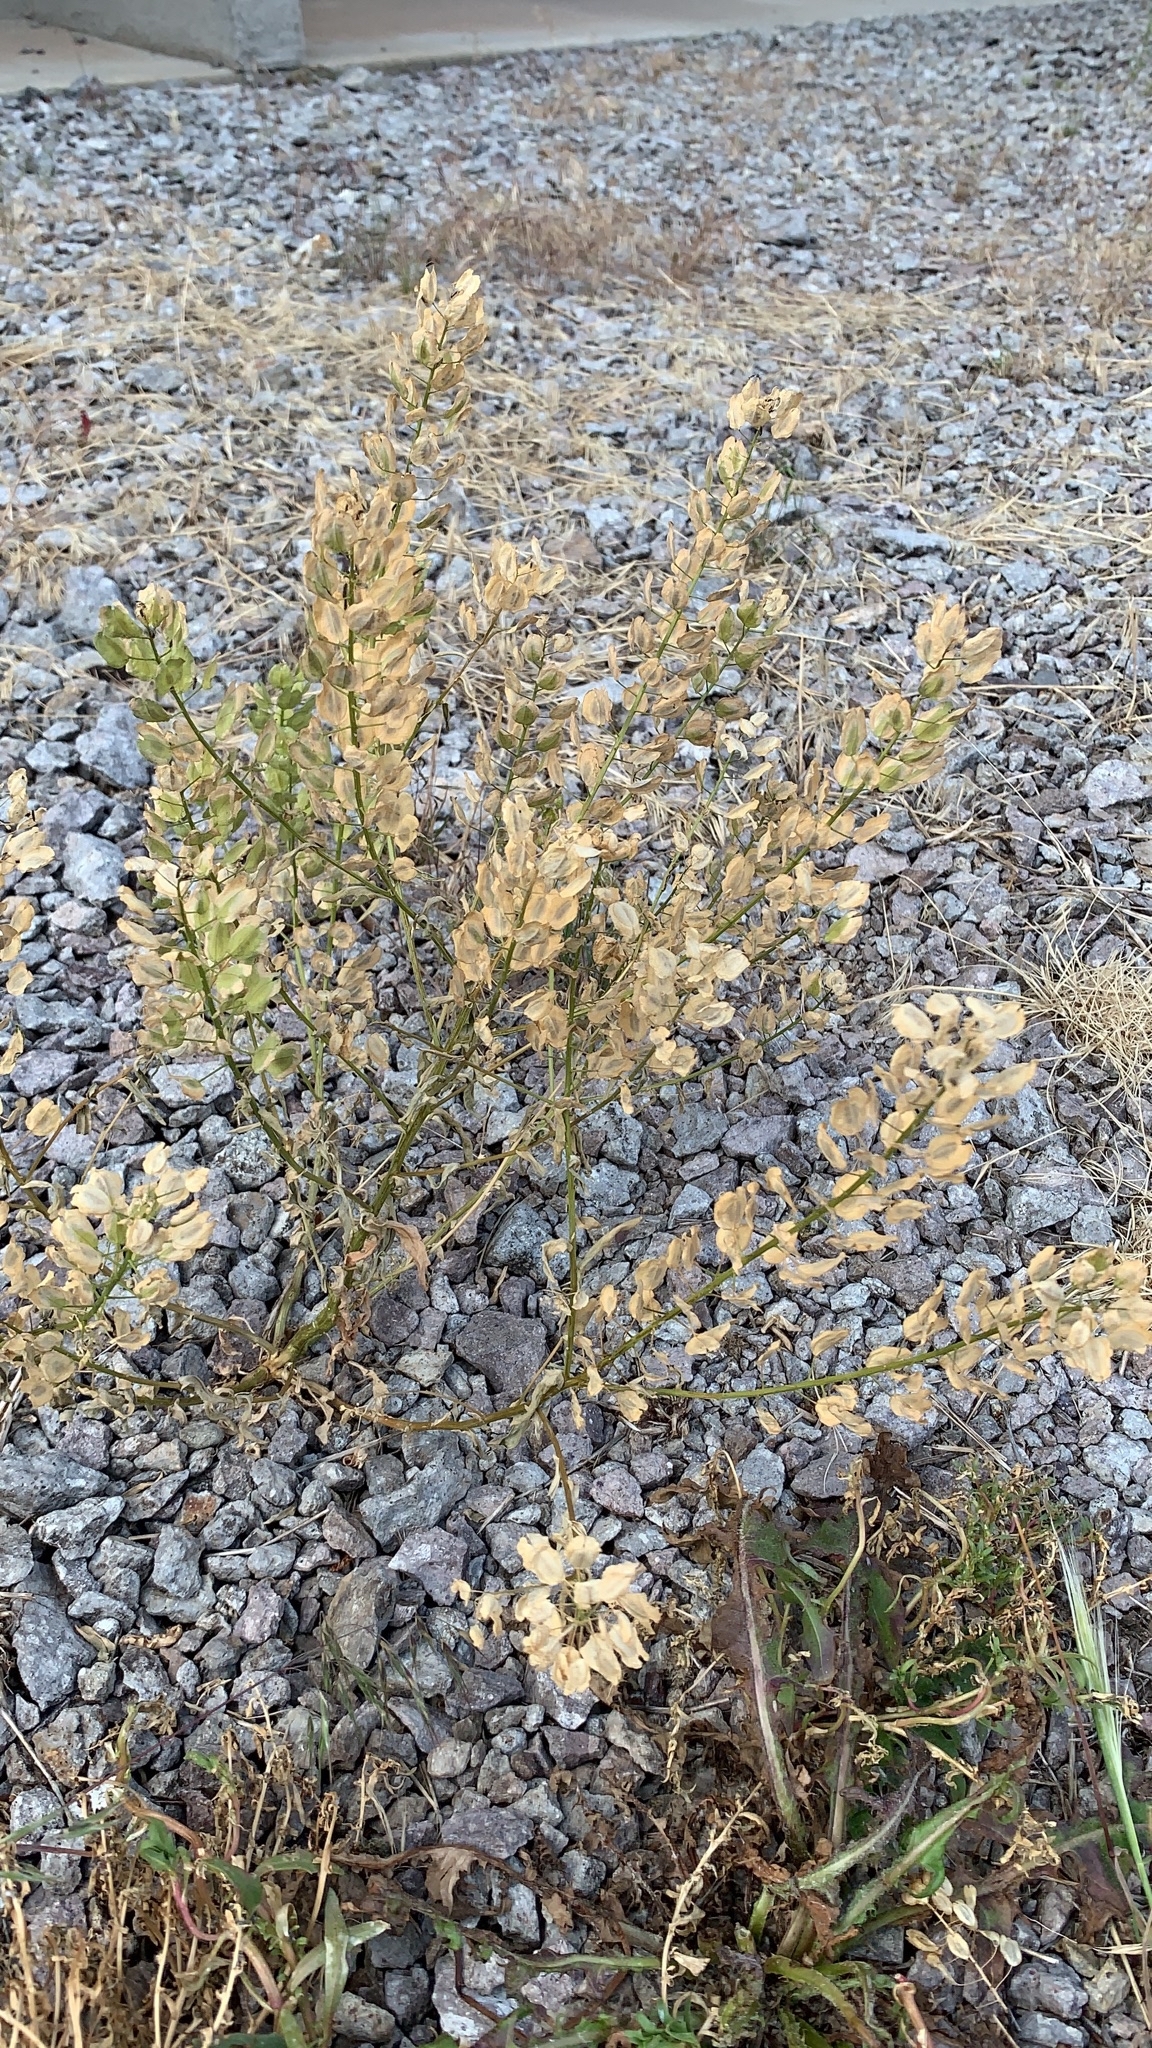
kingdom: Plantae
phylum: Tracheophyta
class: Magnoliopsida
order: Brassicales
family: Brassicaceae
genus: Thlaspi
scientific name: Thlaspi arvense
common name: Field pennycress
